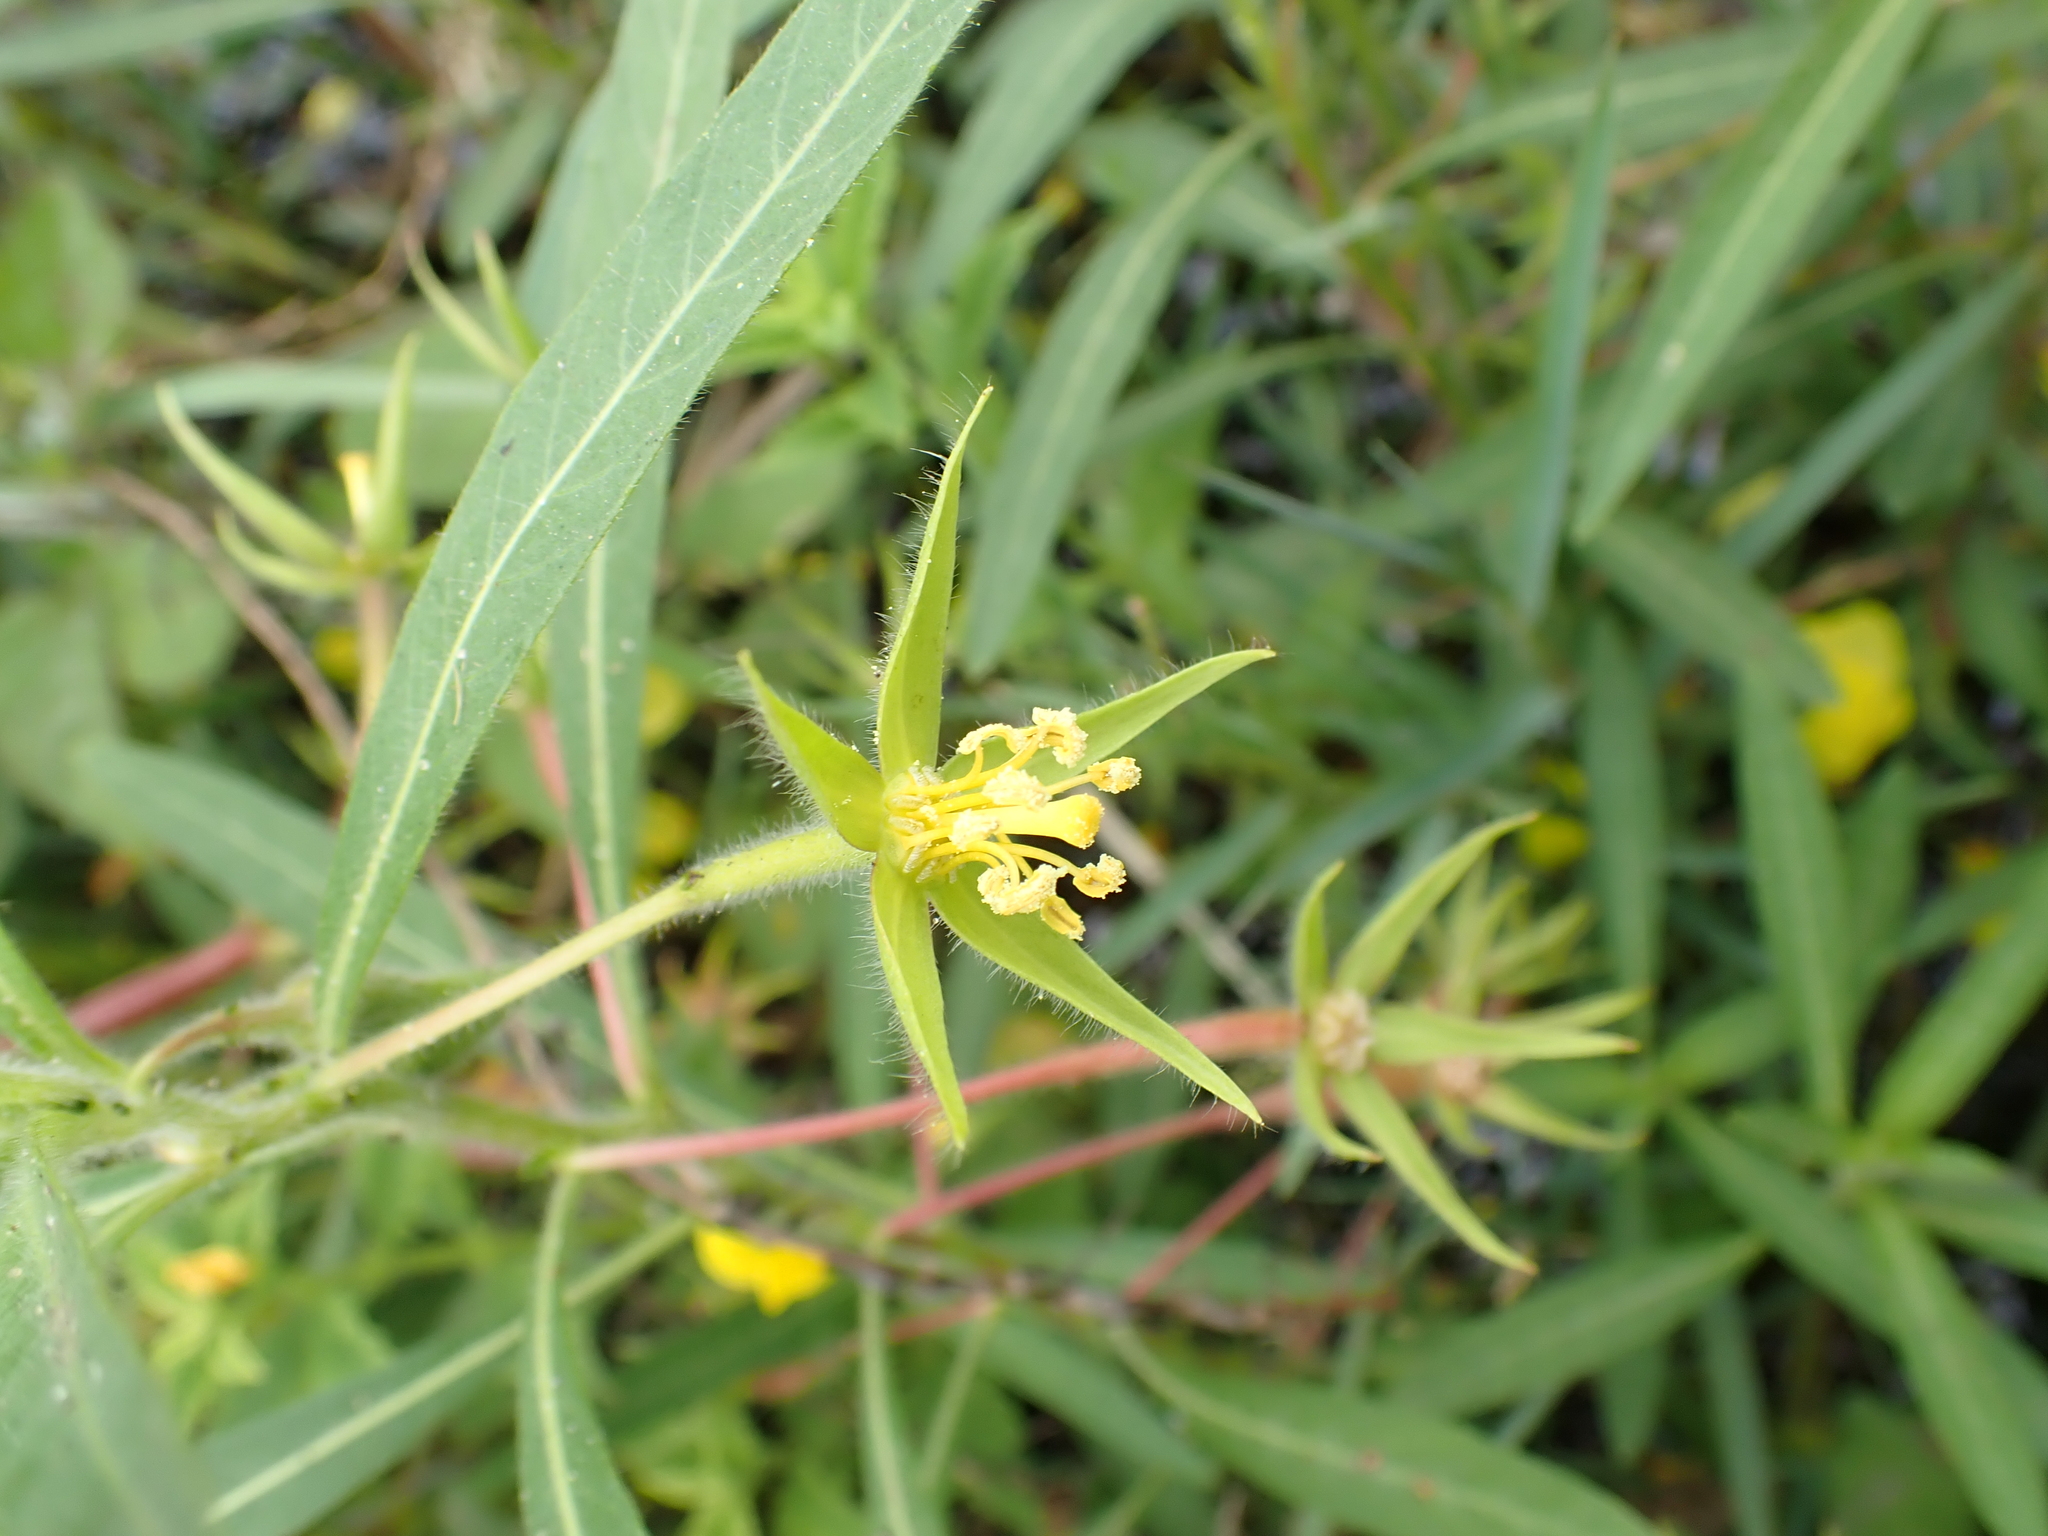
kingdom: Plantae
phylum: Tracheophyta
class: Magnoliopsida
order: Myrtales
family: Onagraceae
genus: Ludwigia
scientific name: Ludwigia grandiflora
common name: Water primrose
